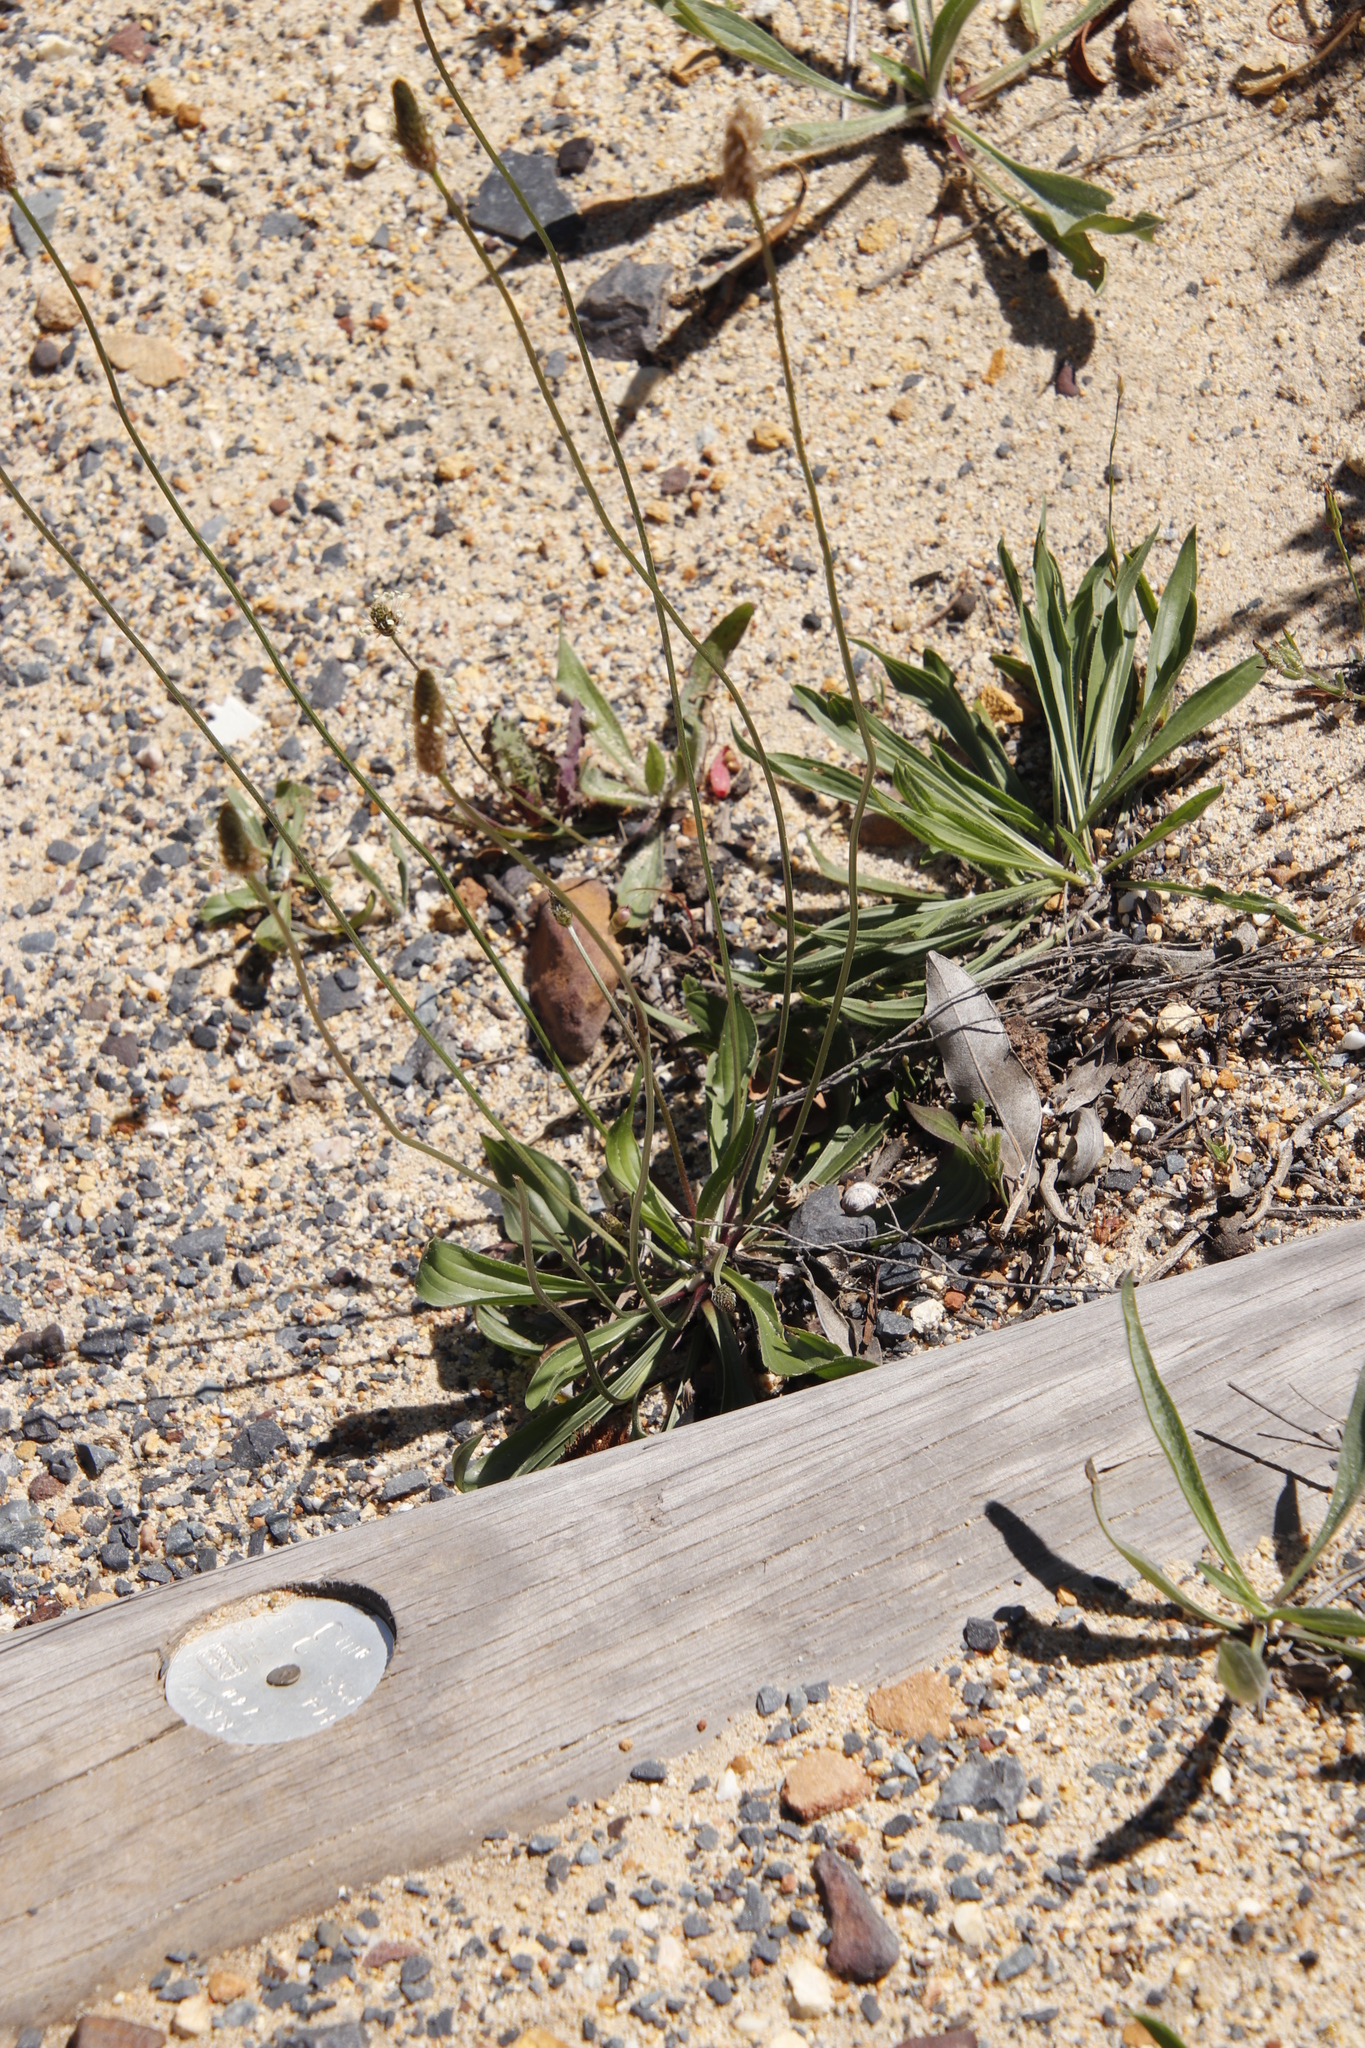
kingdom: Plantae
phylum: Tracheophyta
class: Magnoliopsida
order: Lamiales
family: Plantaginaceae
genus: Plantago
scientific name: Plantago lanceolata
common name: Ribwort plantain
